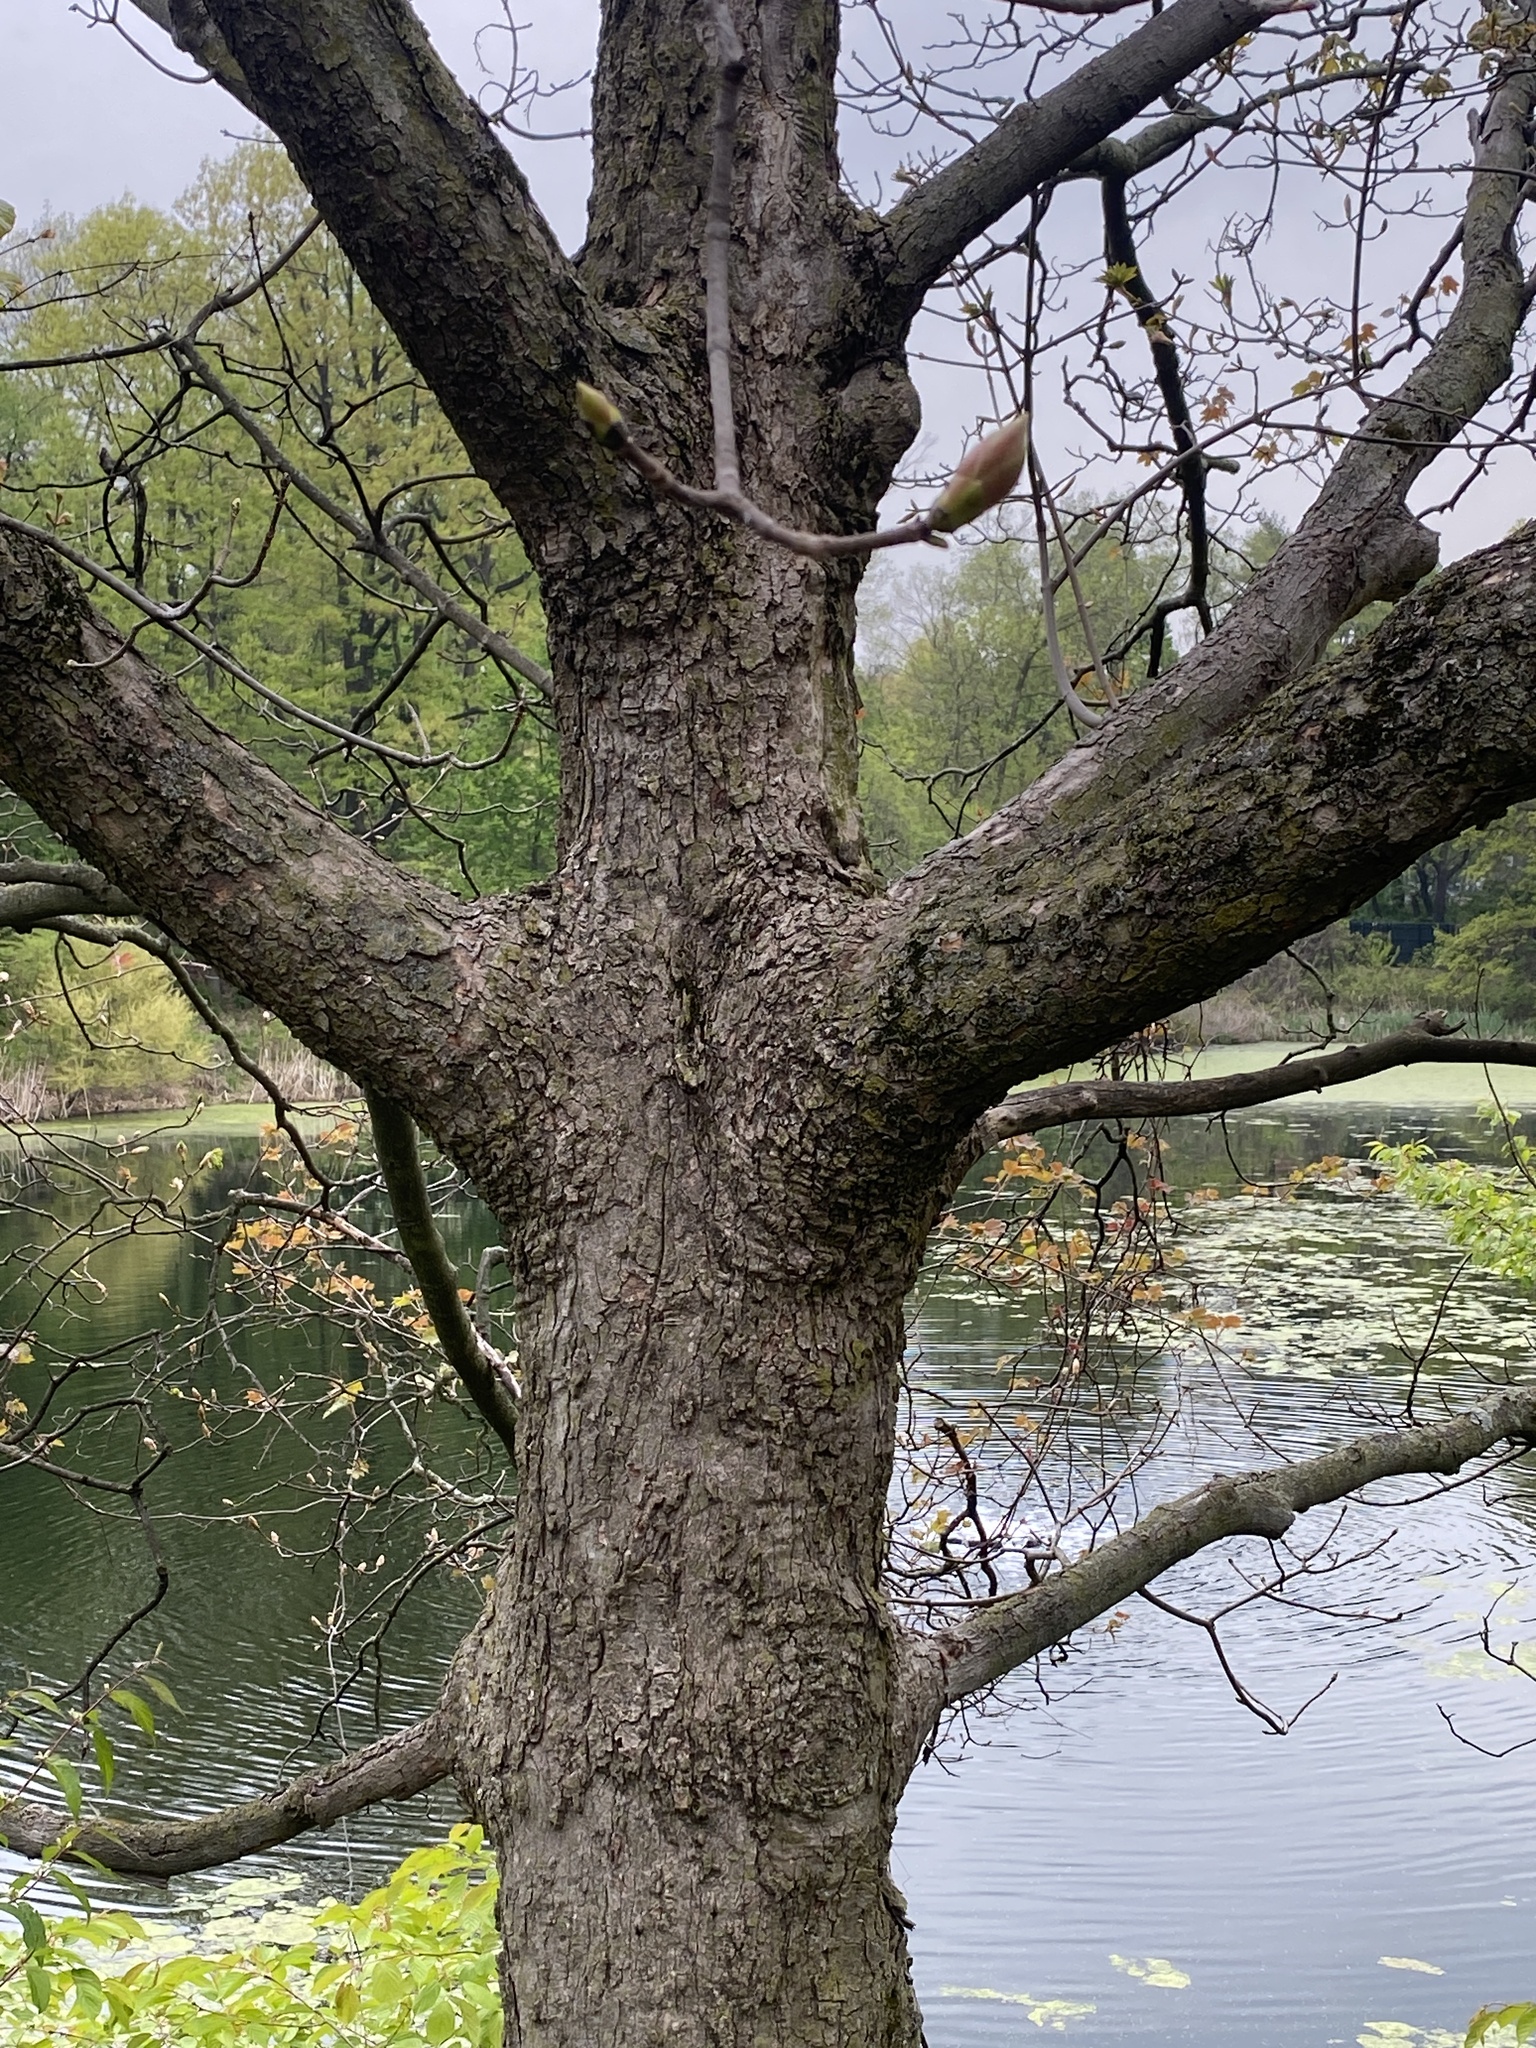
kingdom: Plantae
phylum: Tracheophyta
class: Magnoliopsida
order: Sapindales
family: Sapindaceae
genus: Acer
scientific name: Acer pseudoplatanus
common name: Sycamore
